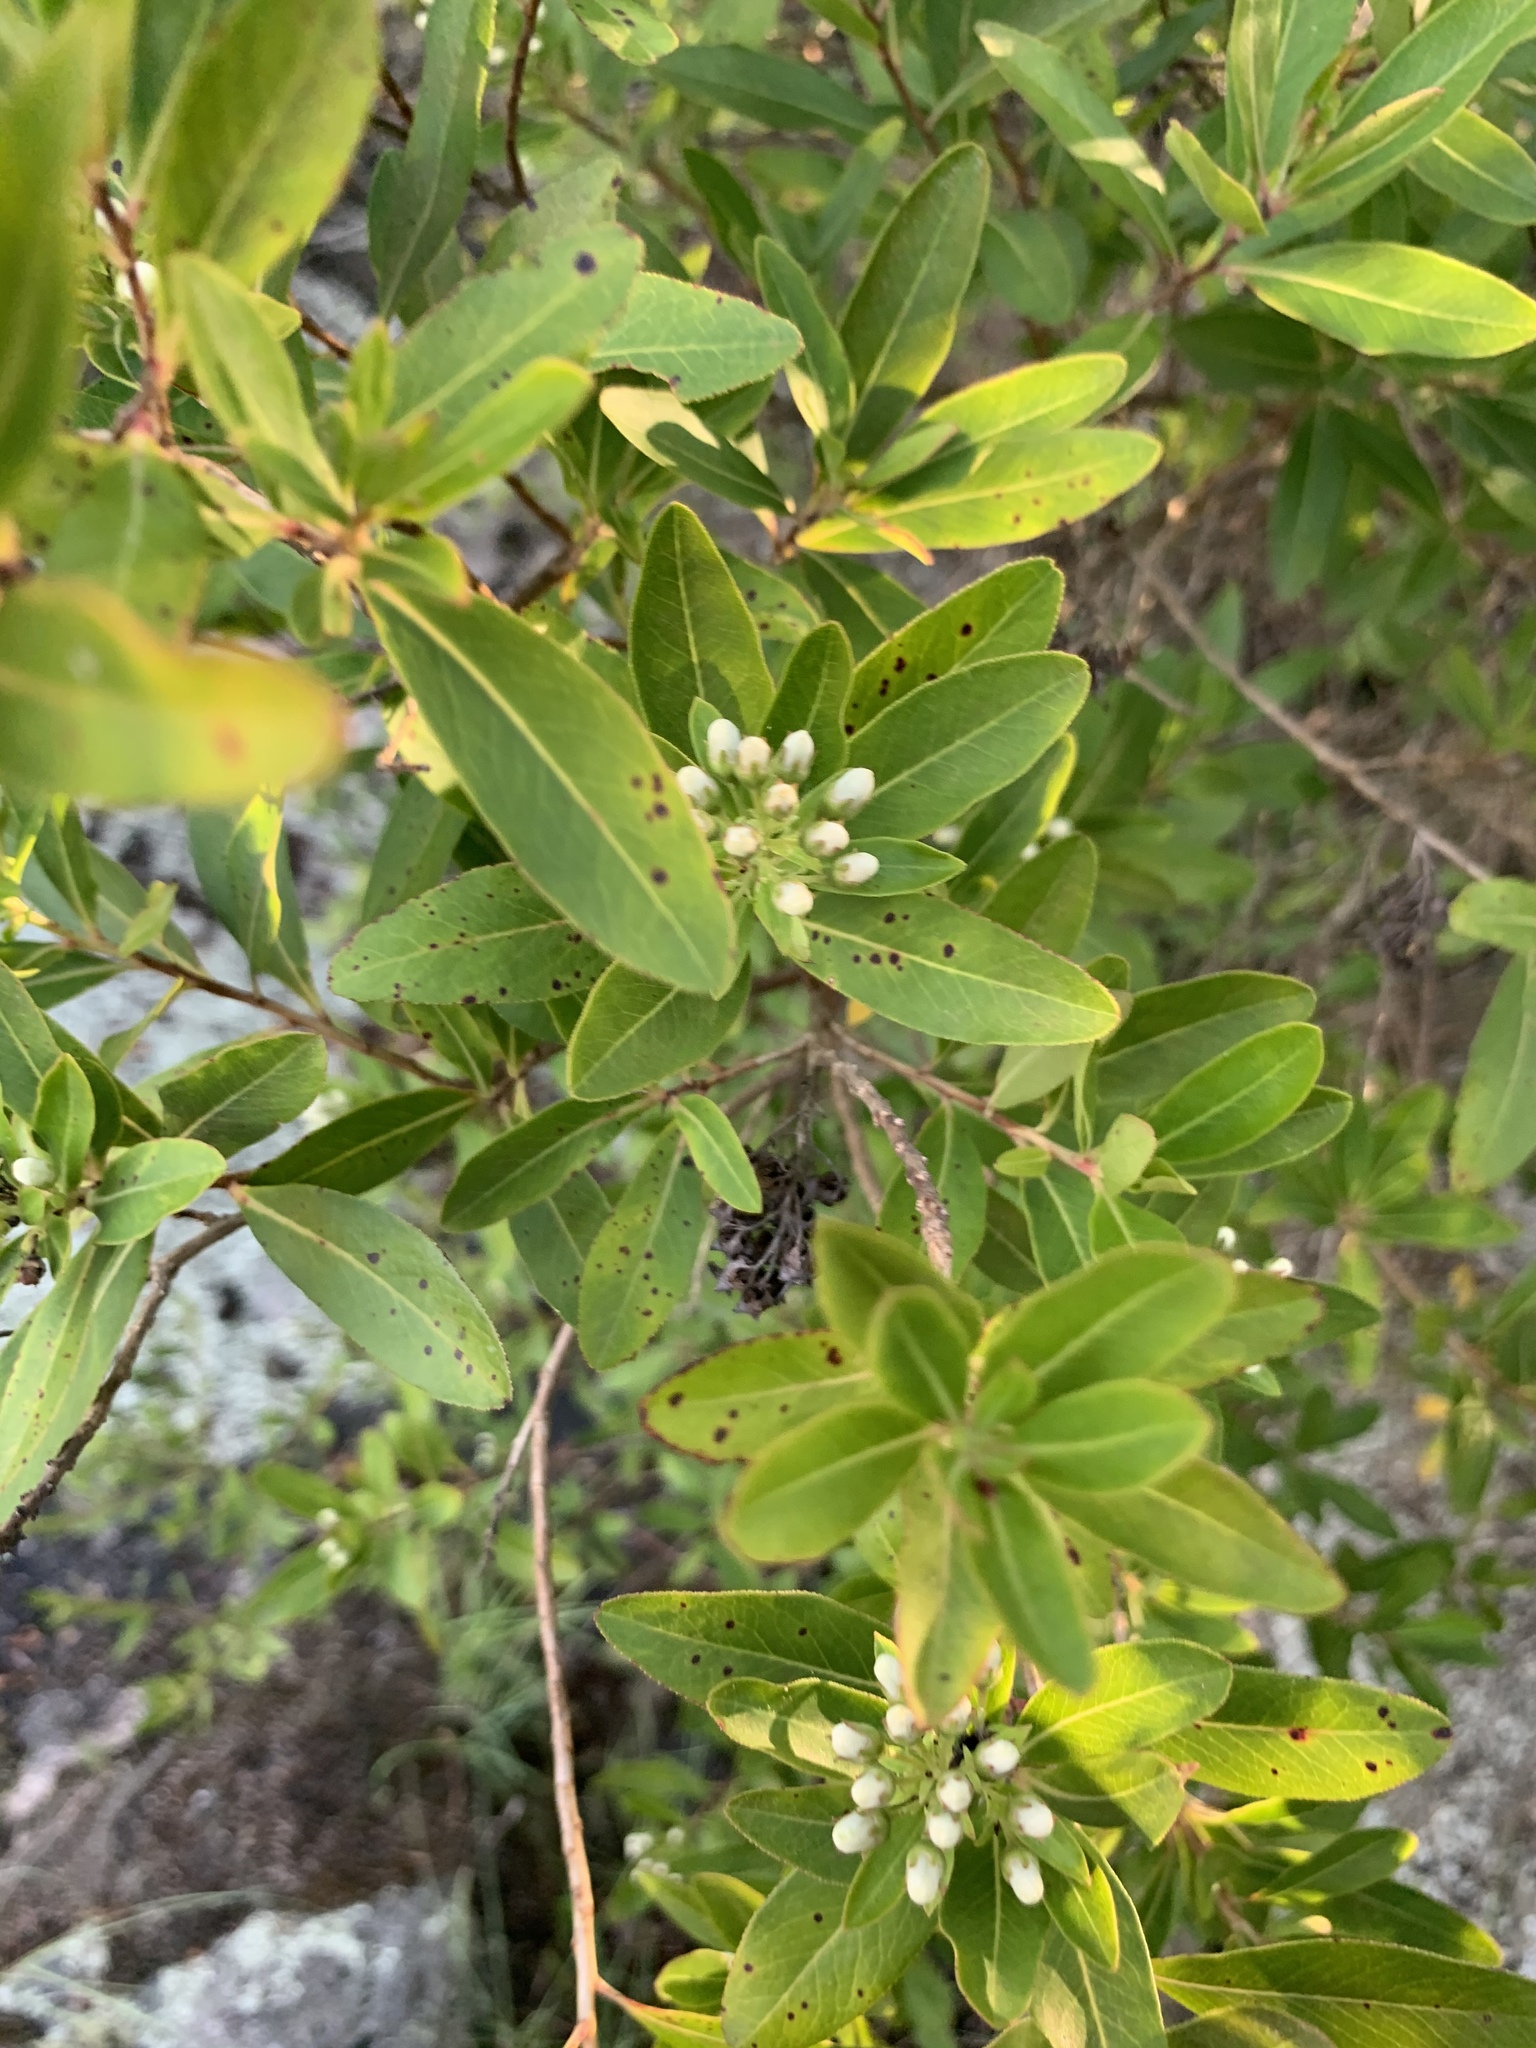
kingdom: Plantae
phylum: Tracheophyta
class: Magnoliopsida
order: Escalloniales
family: Escalloniaceae
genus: Escallonia
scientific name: Escallonia bifida
